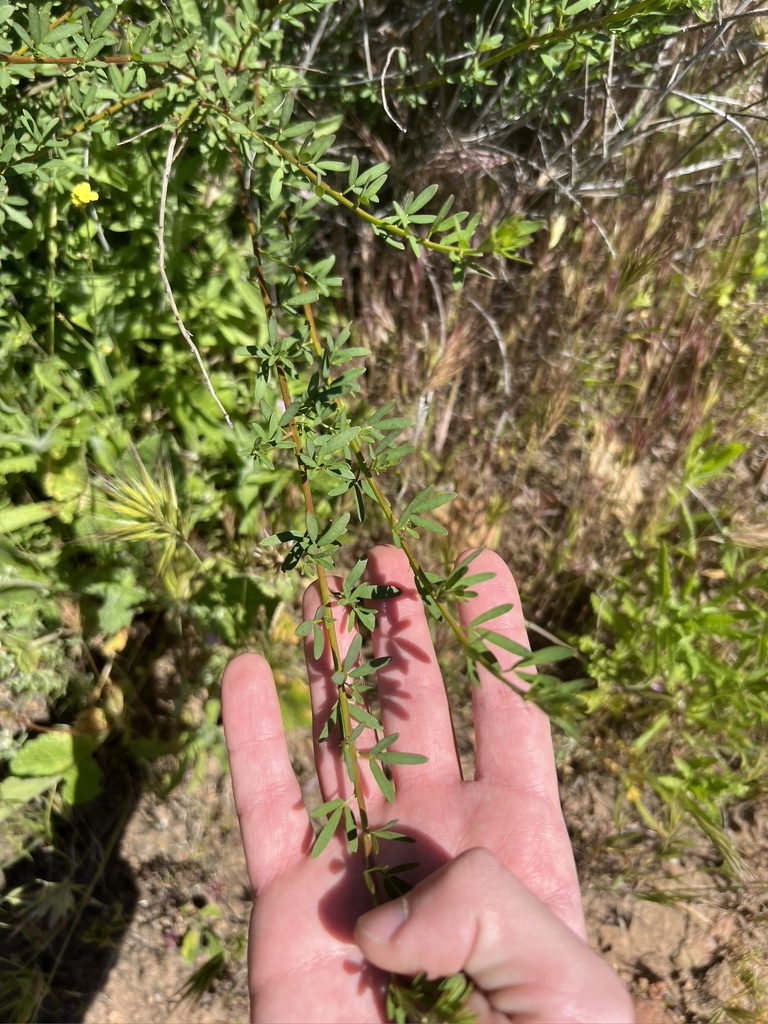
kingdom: Plantae
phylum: Tracheophyta
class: Magnoliopsida
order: Fabales
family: Fabaceae
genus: Acmispon
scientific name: Acmispon glaber
